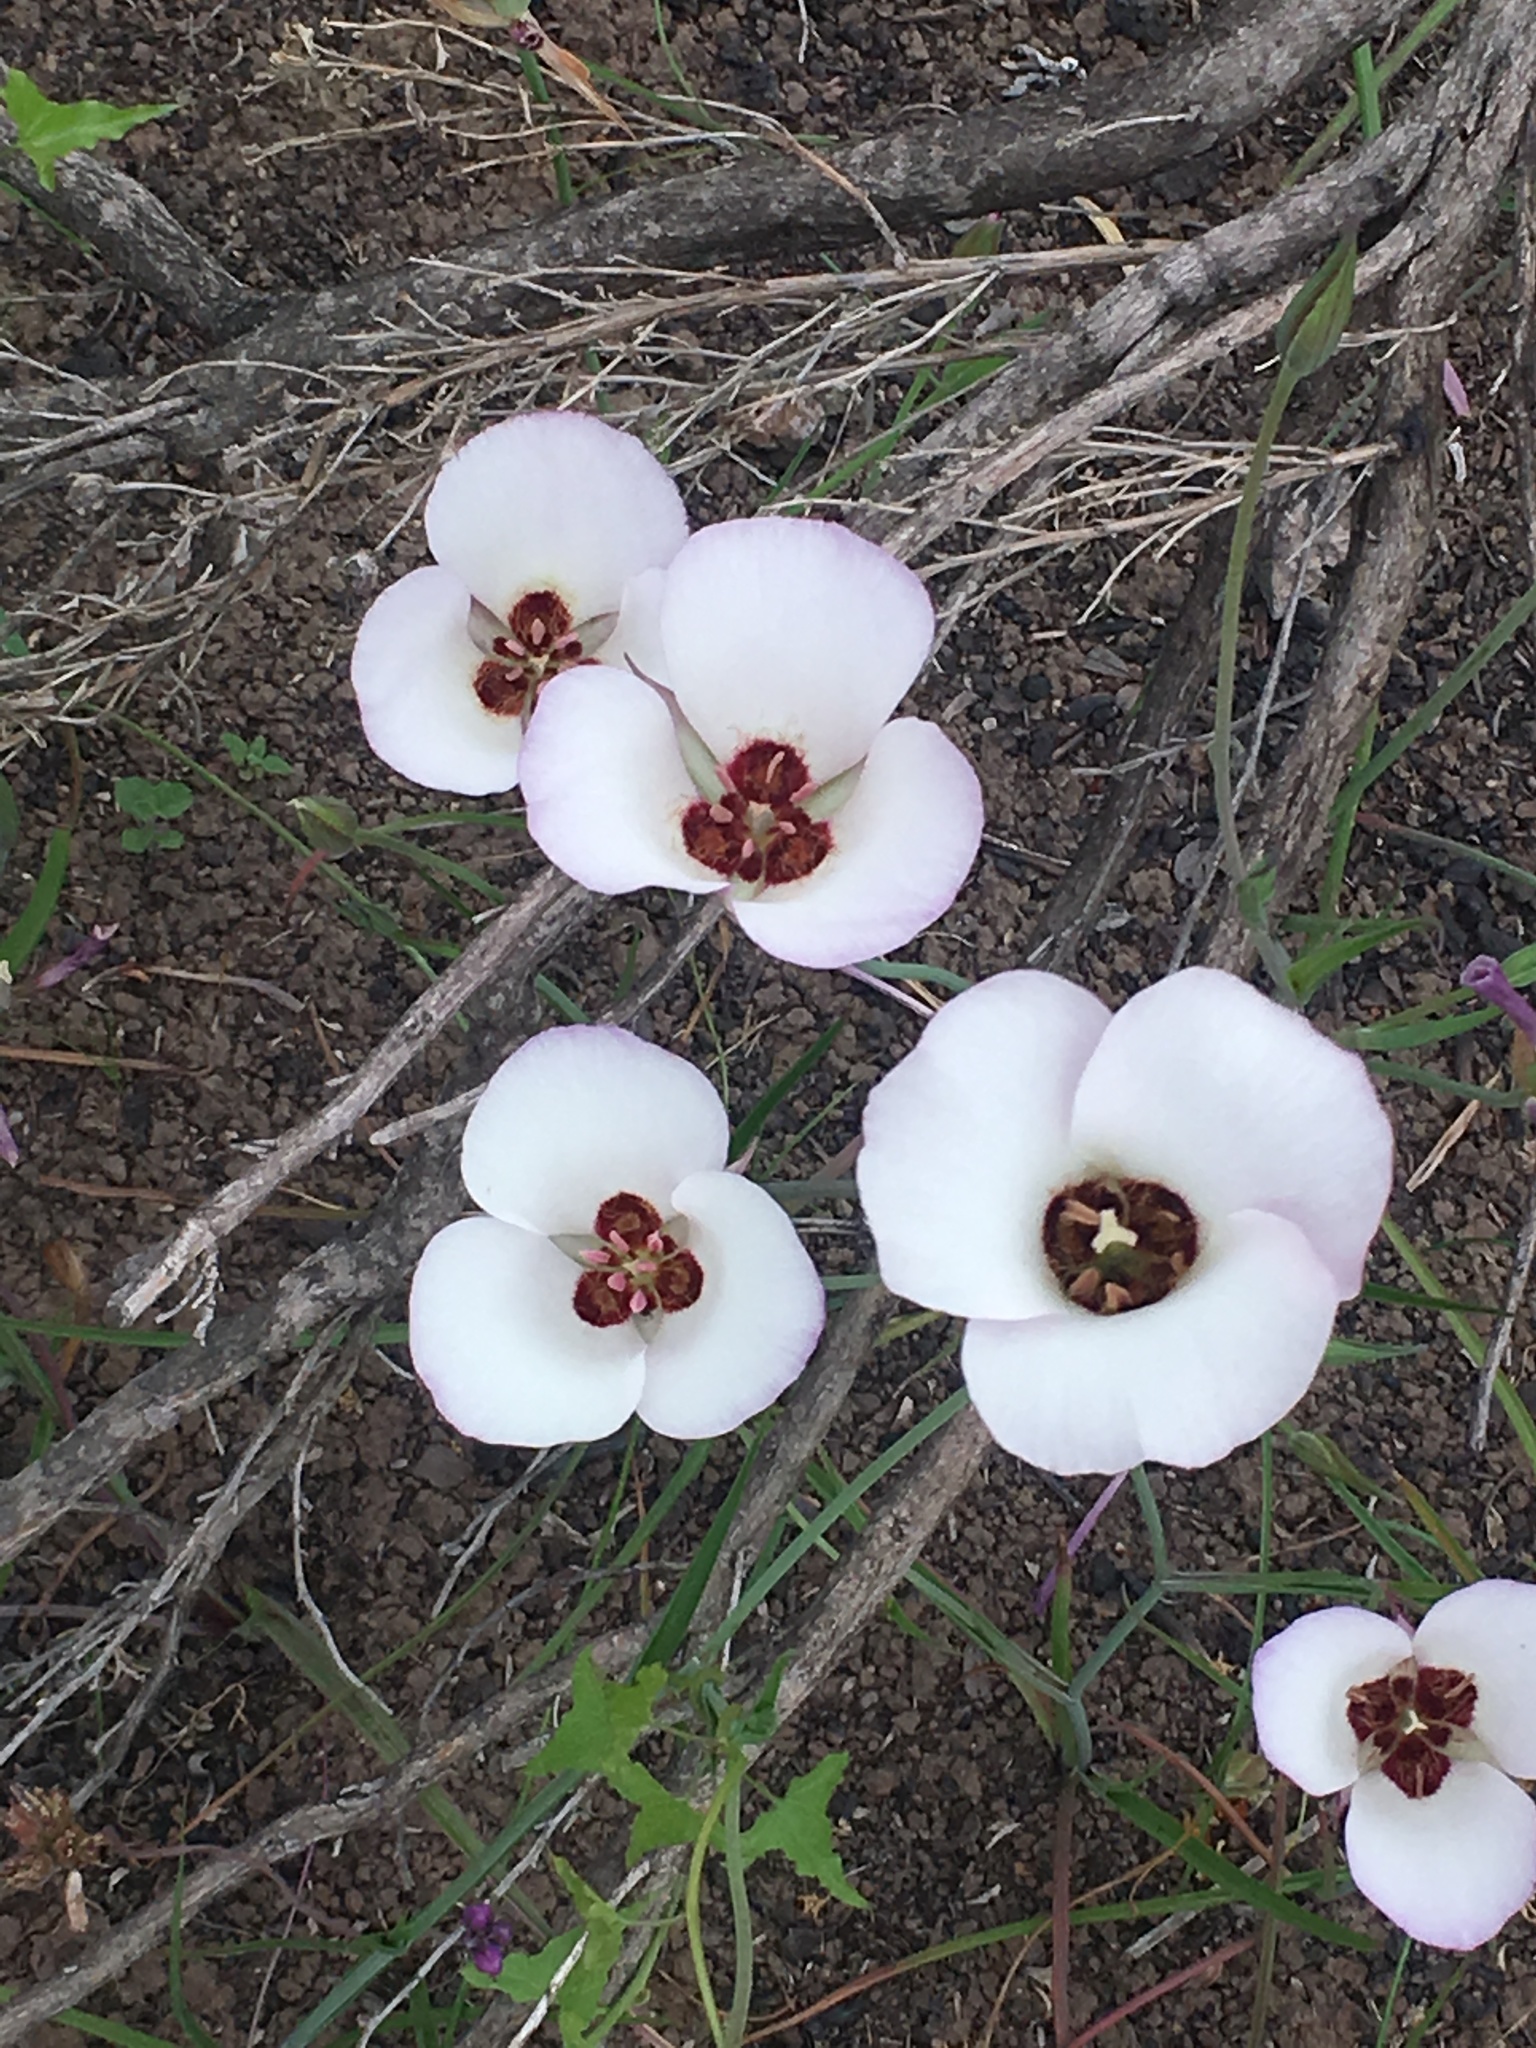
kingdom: Plantae
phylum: Tracheophyta
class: Liliopsida
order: Liliales
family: Liliaceae
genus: Calochortus
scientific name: Calochortus catalinae
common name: Catalina mariposa-lily
